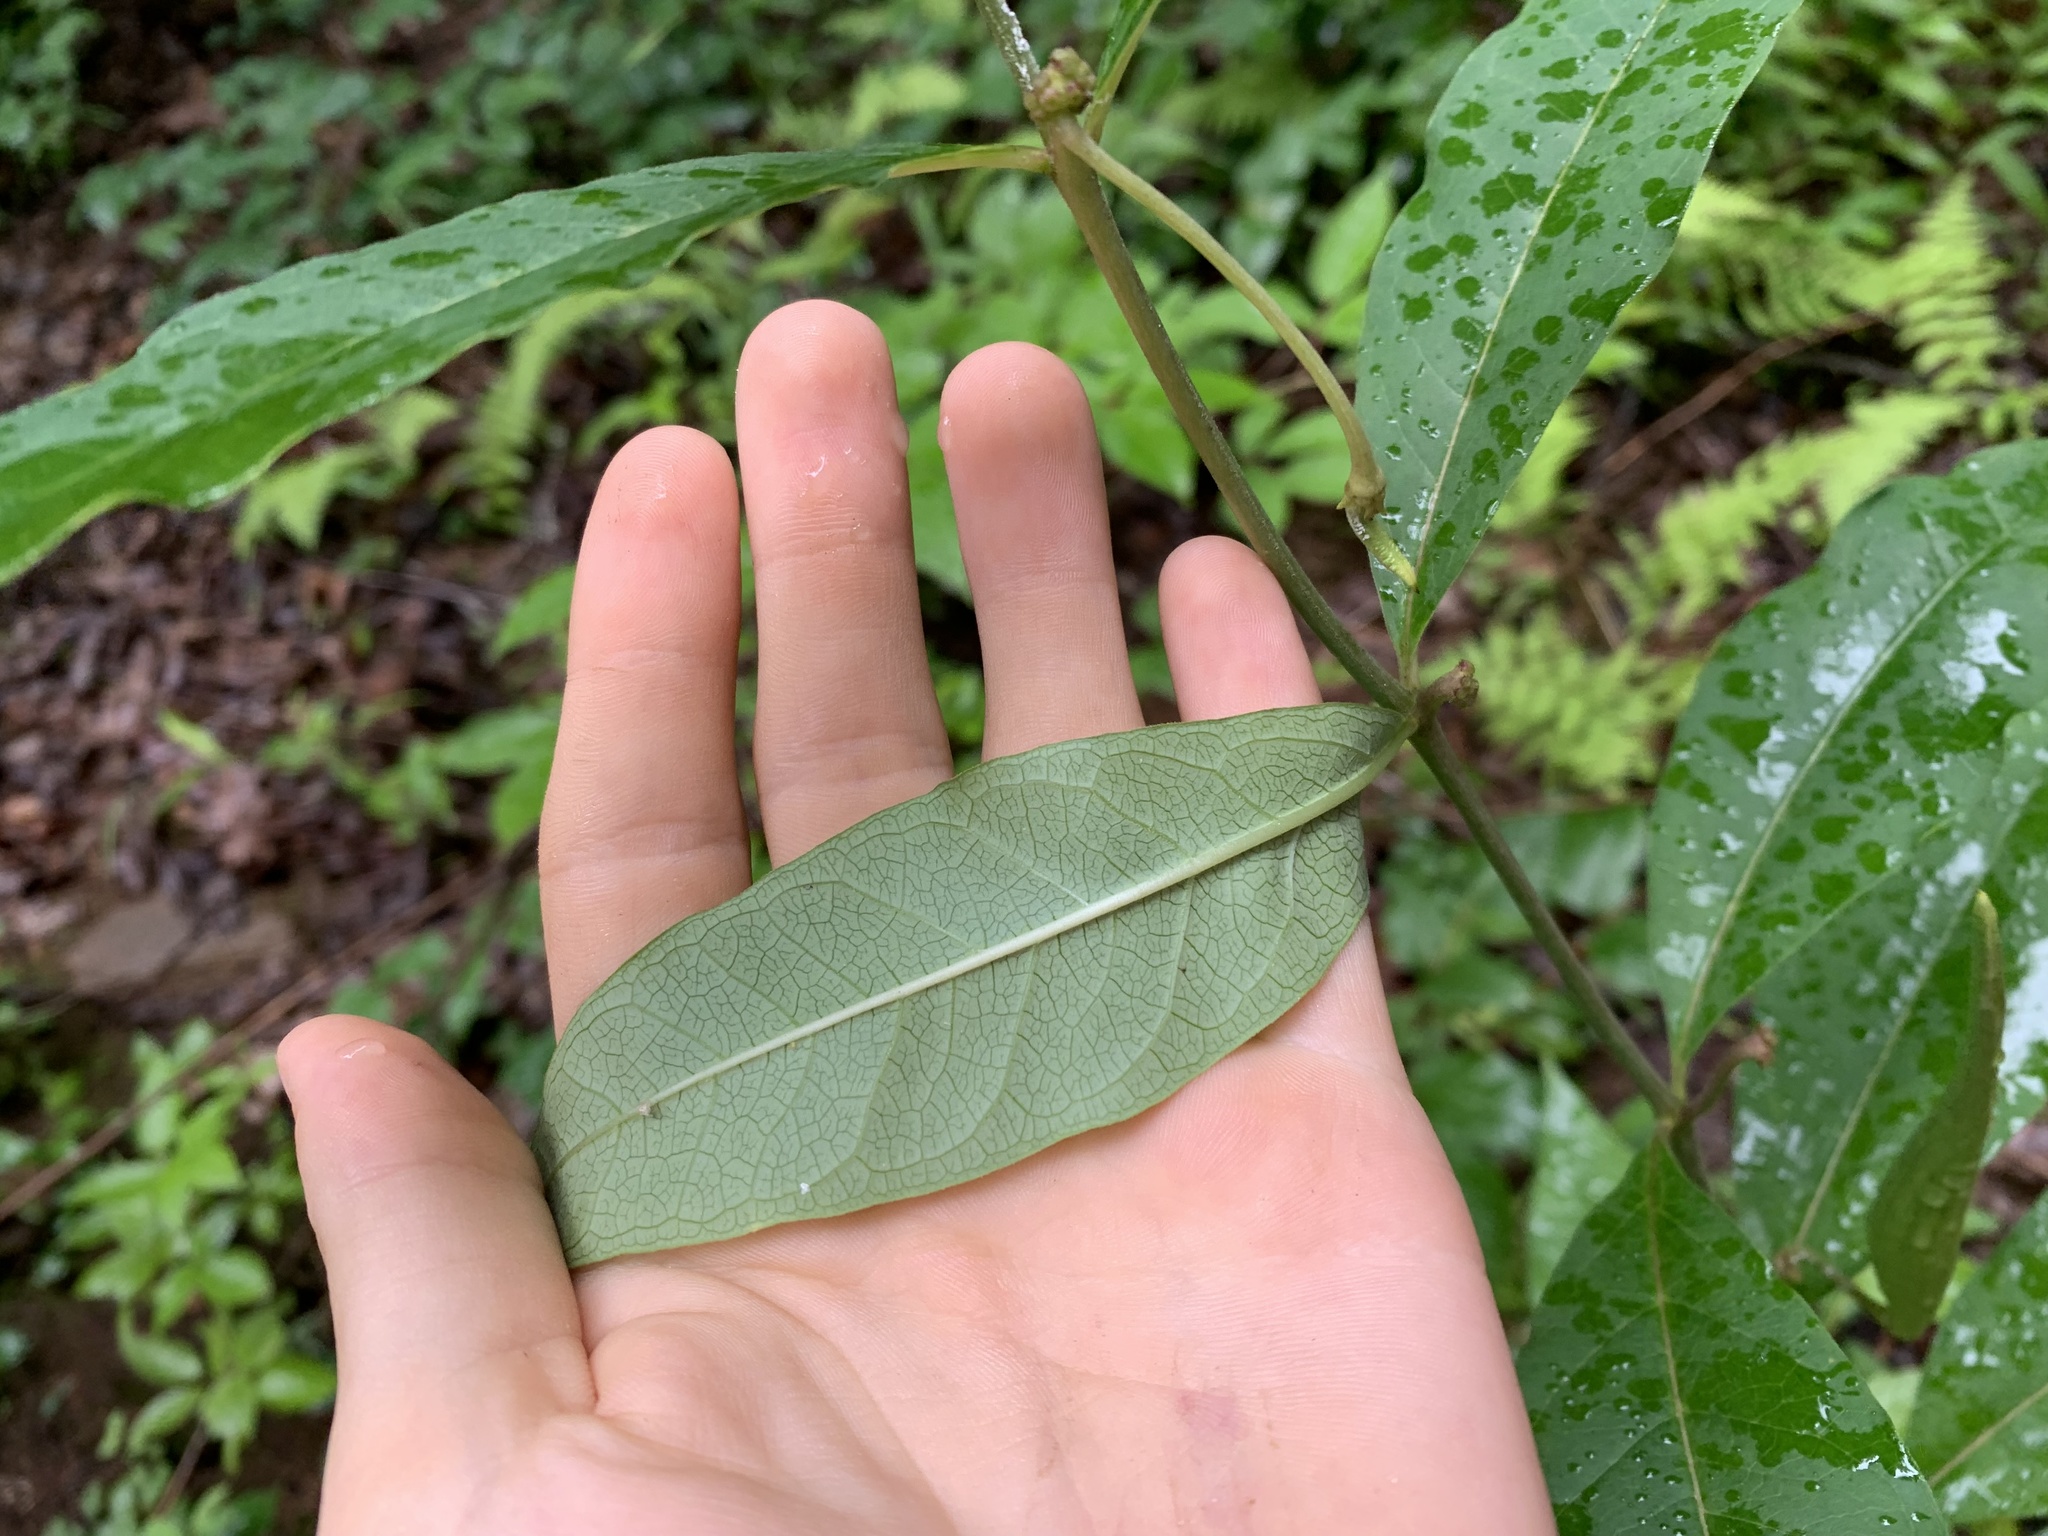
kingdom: Plantae
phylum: Tracheophyta
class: Magnoliopsida
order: Gentianales
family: Apocynaceae
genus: Asclepias
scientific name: Asclepias exaltata
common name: Poke milkweed
